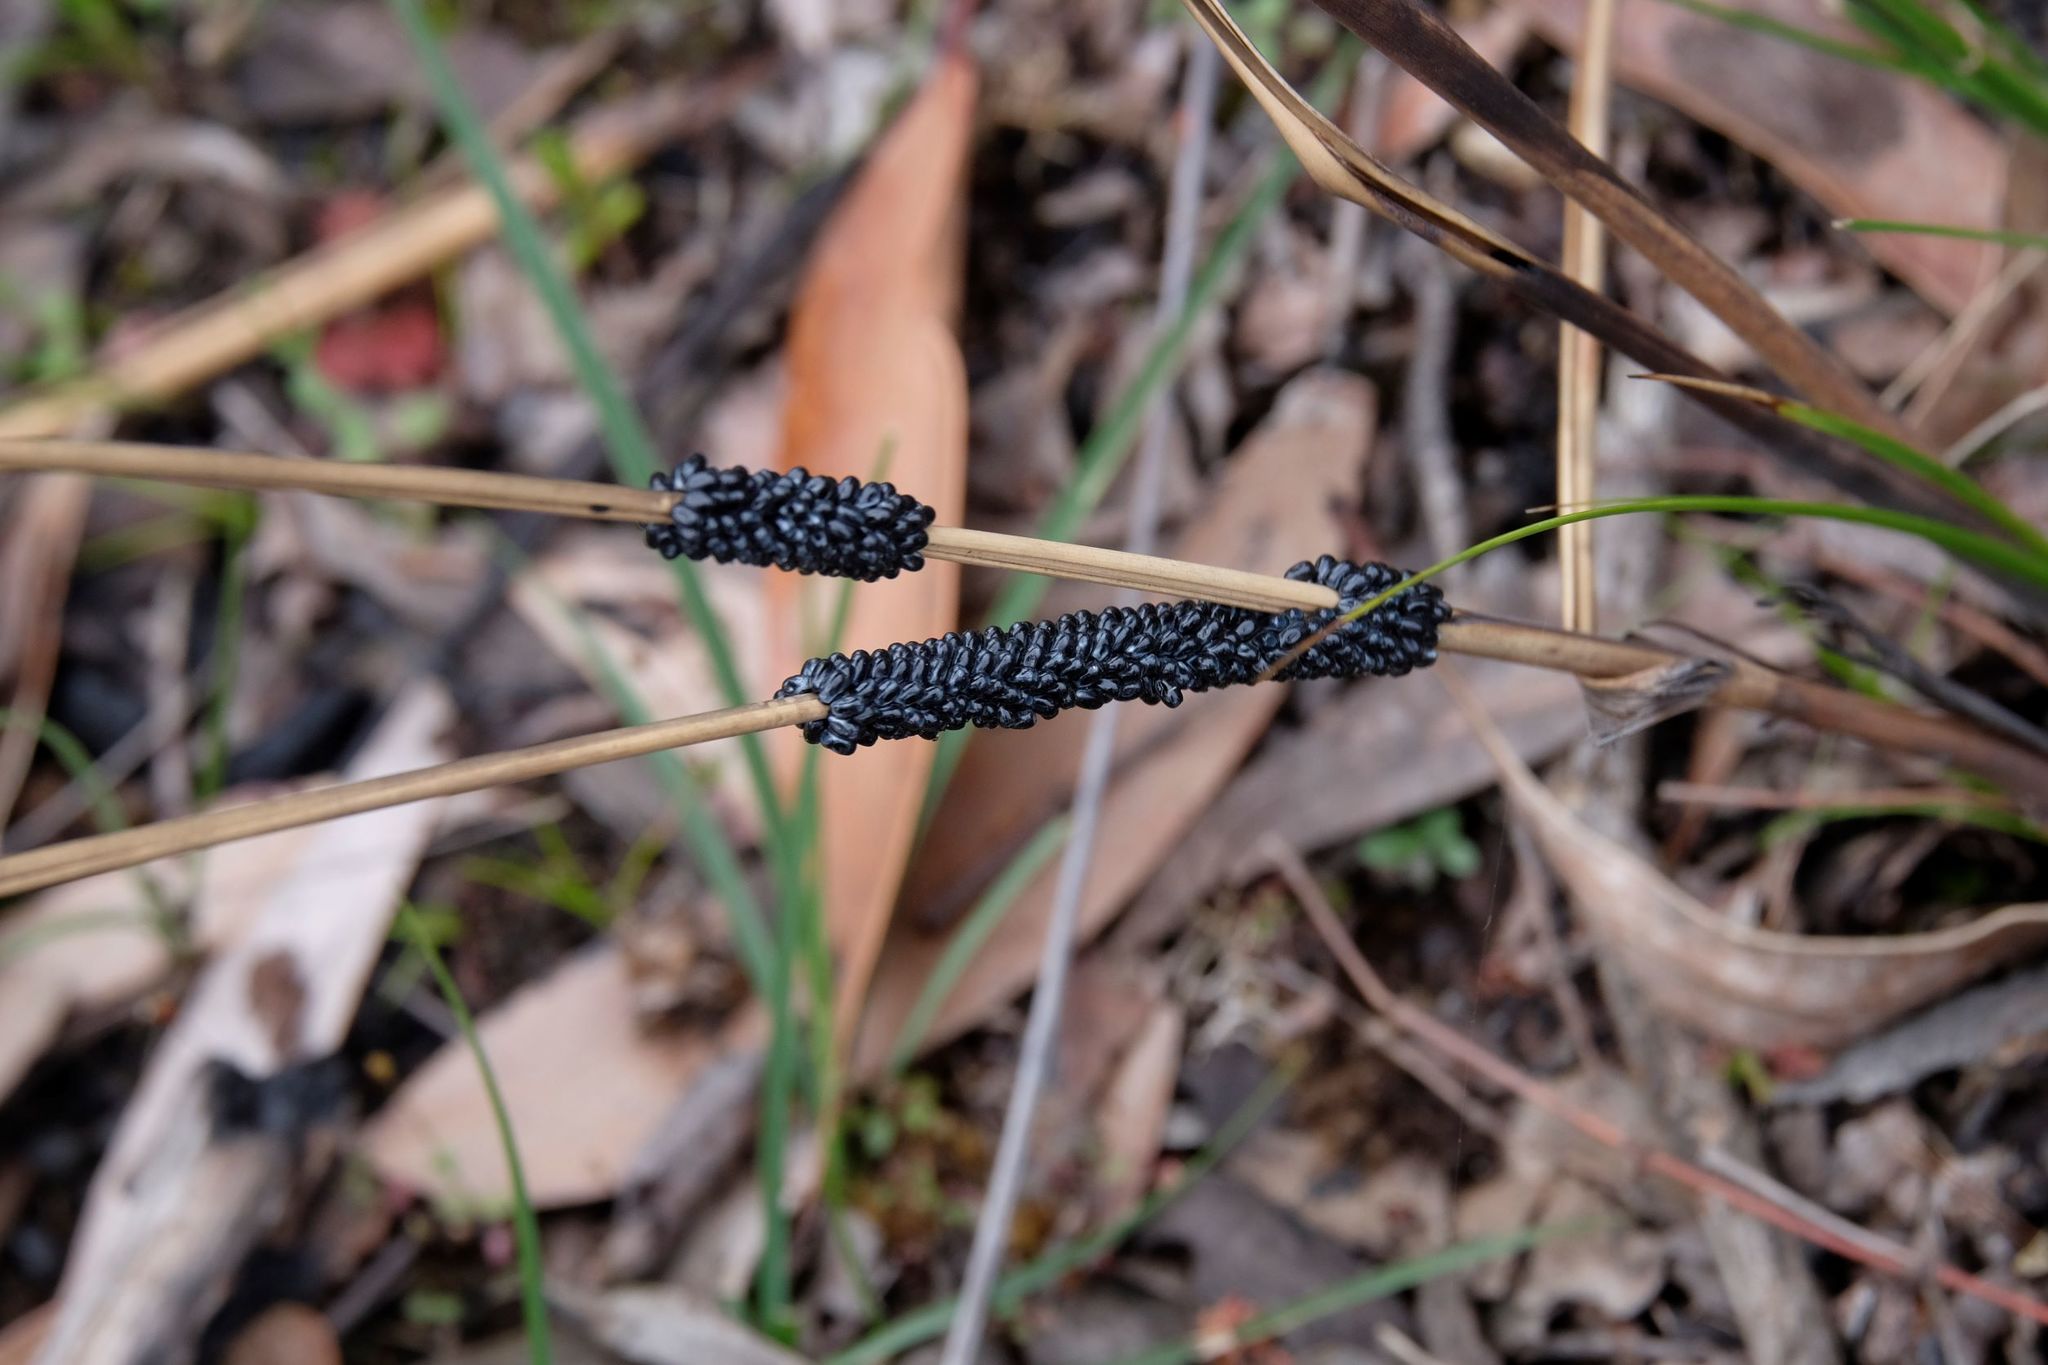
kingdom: Animalia
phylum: Arthropoda
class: Insecta
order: Lepidoptera
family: Cossidae
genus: Ptilomacra
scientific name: Ptilomacra senex
